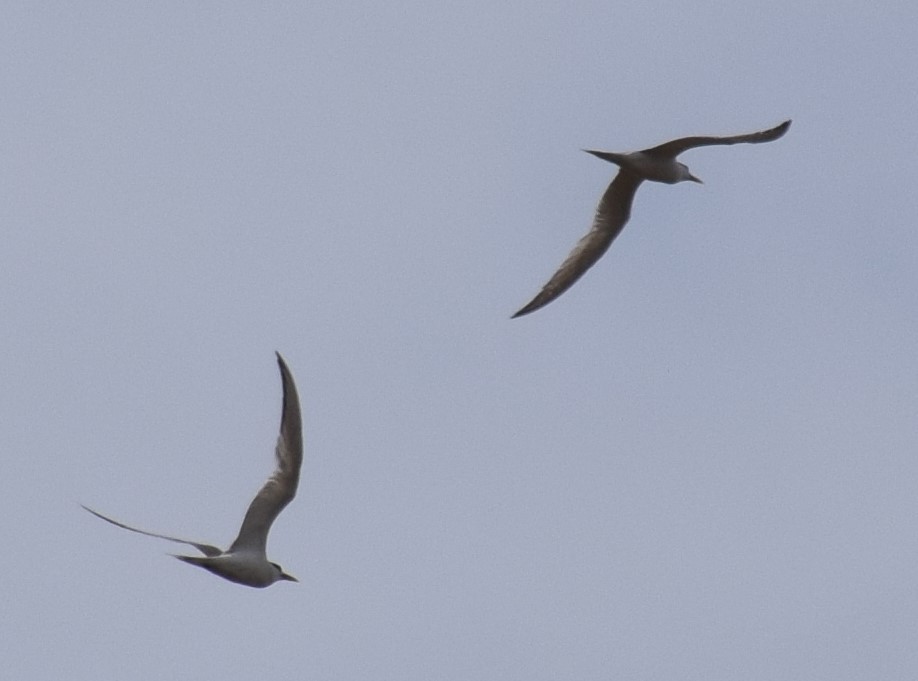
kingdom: Animalia
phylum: Chordata
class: Aves
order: Charadriiformes
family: Laridae
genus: Thalasseus
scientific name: Thalasseus bergii
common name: Greater crested tern
